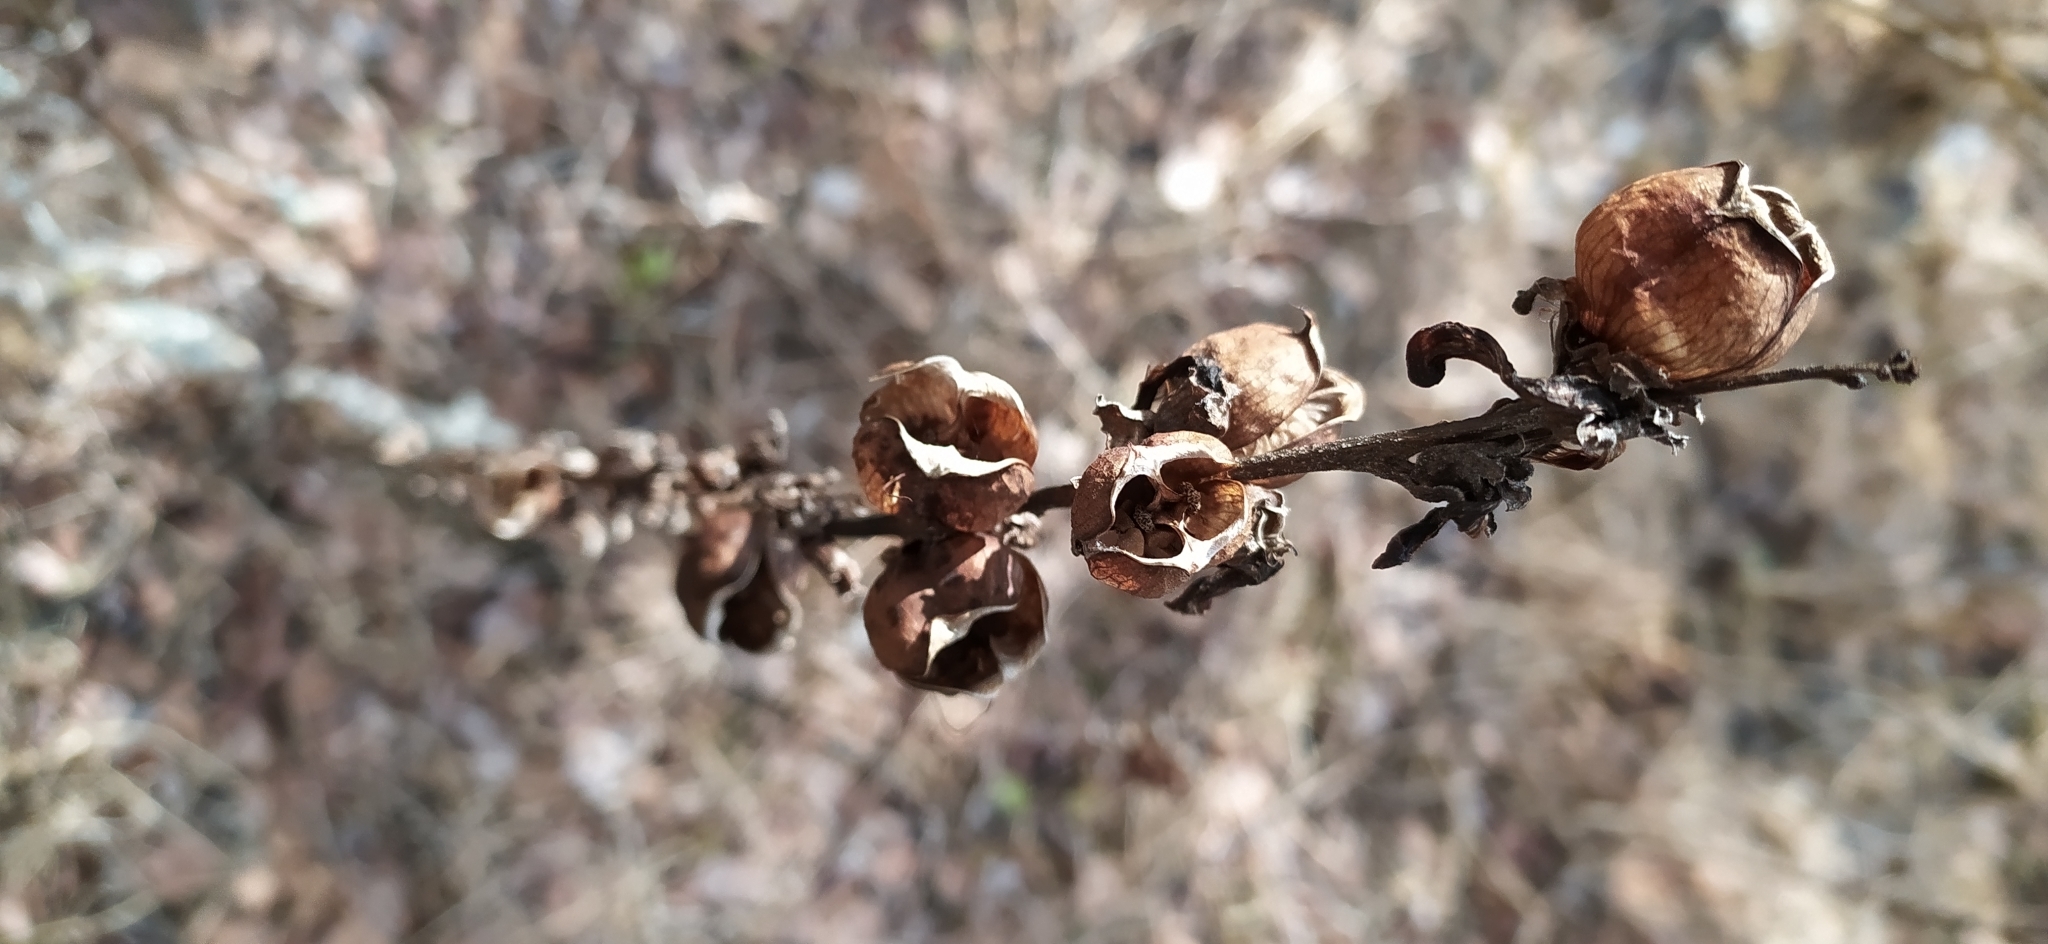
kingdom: Plantae
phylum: Tracheophyta
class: Magnoliopsida
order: Lamiales
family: Orobanchaceae
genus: Pedicularis
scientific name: Pedicularis sceptrum-carolinum
